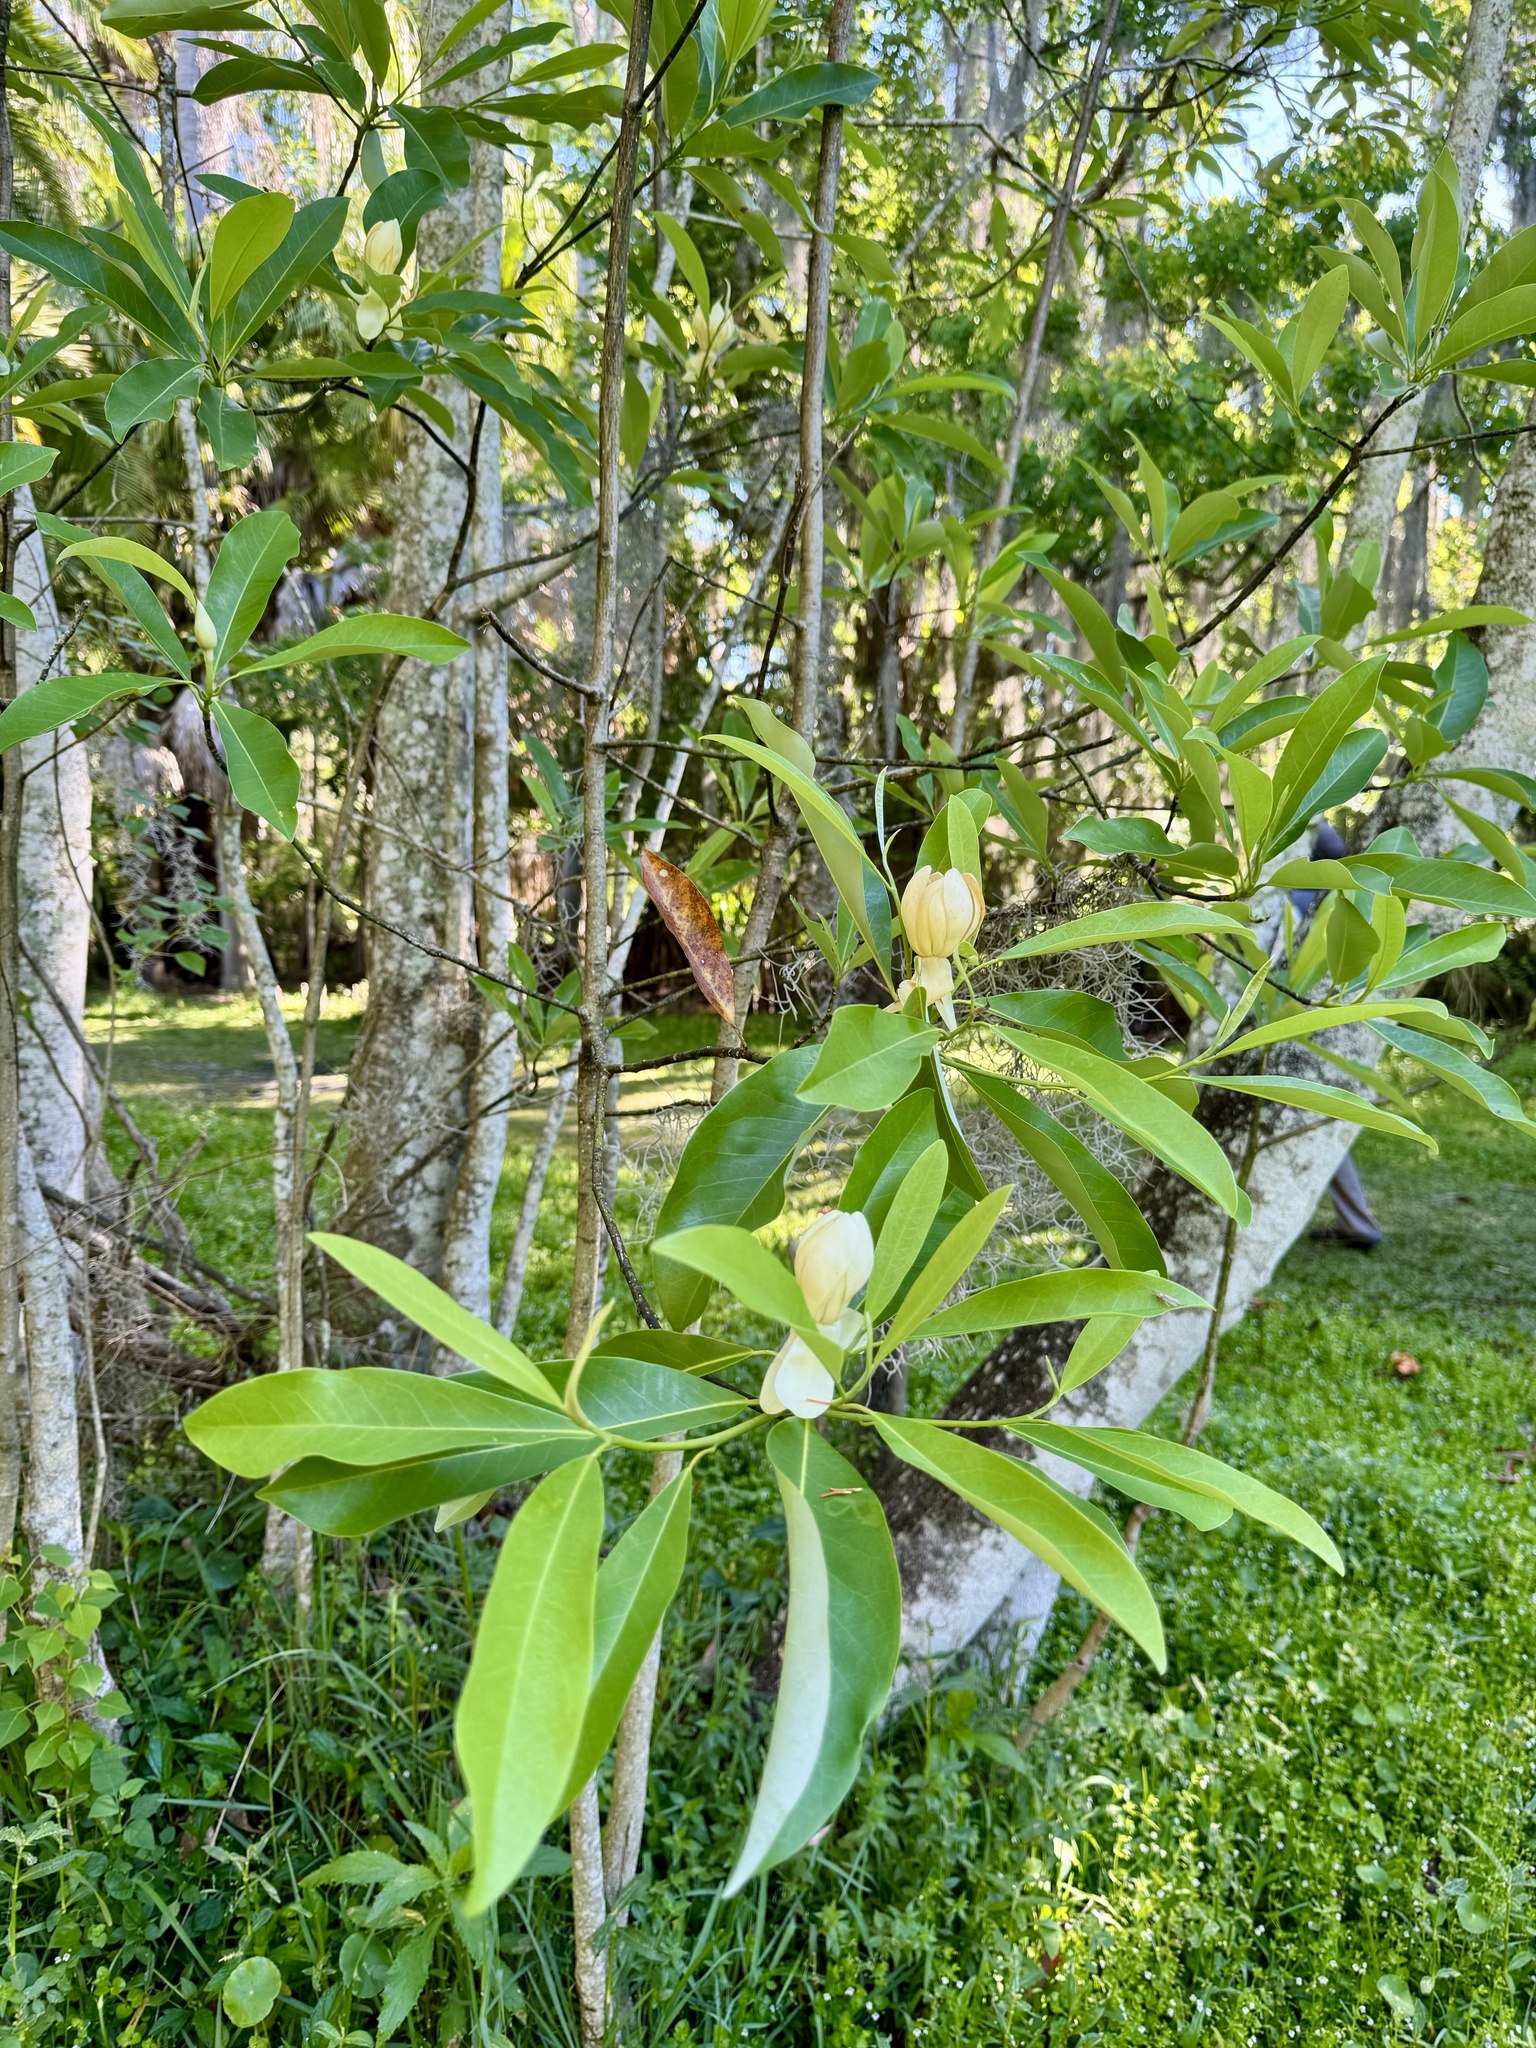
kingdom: Plantae
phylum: Tracheophyta
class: Magnoliopsida
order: Magnoliales
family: Magnoliaceae
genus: Magnolia
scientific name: Magnolia virginiana
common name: Swamp bay
